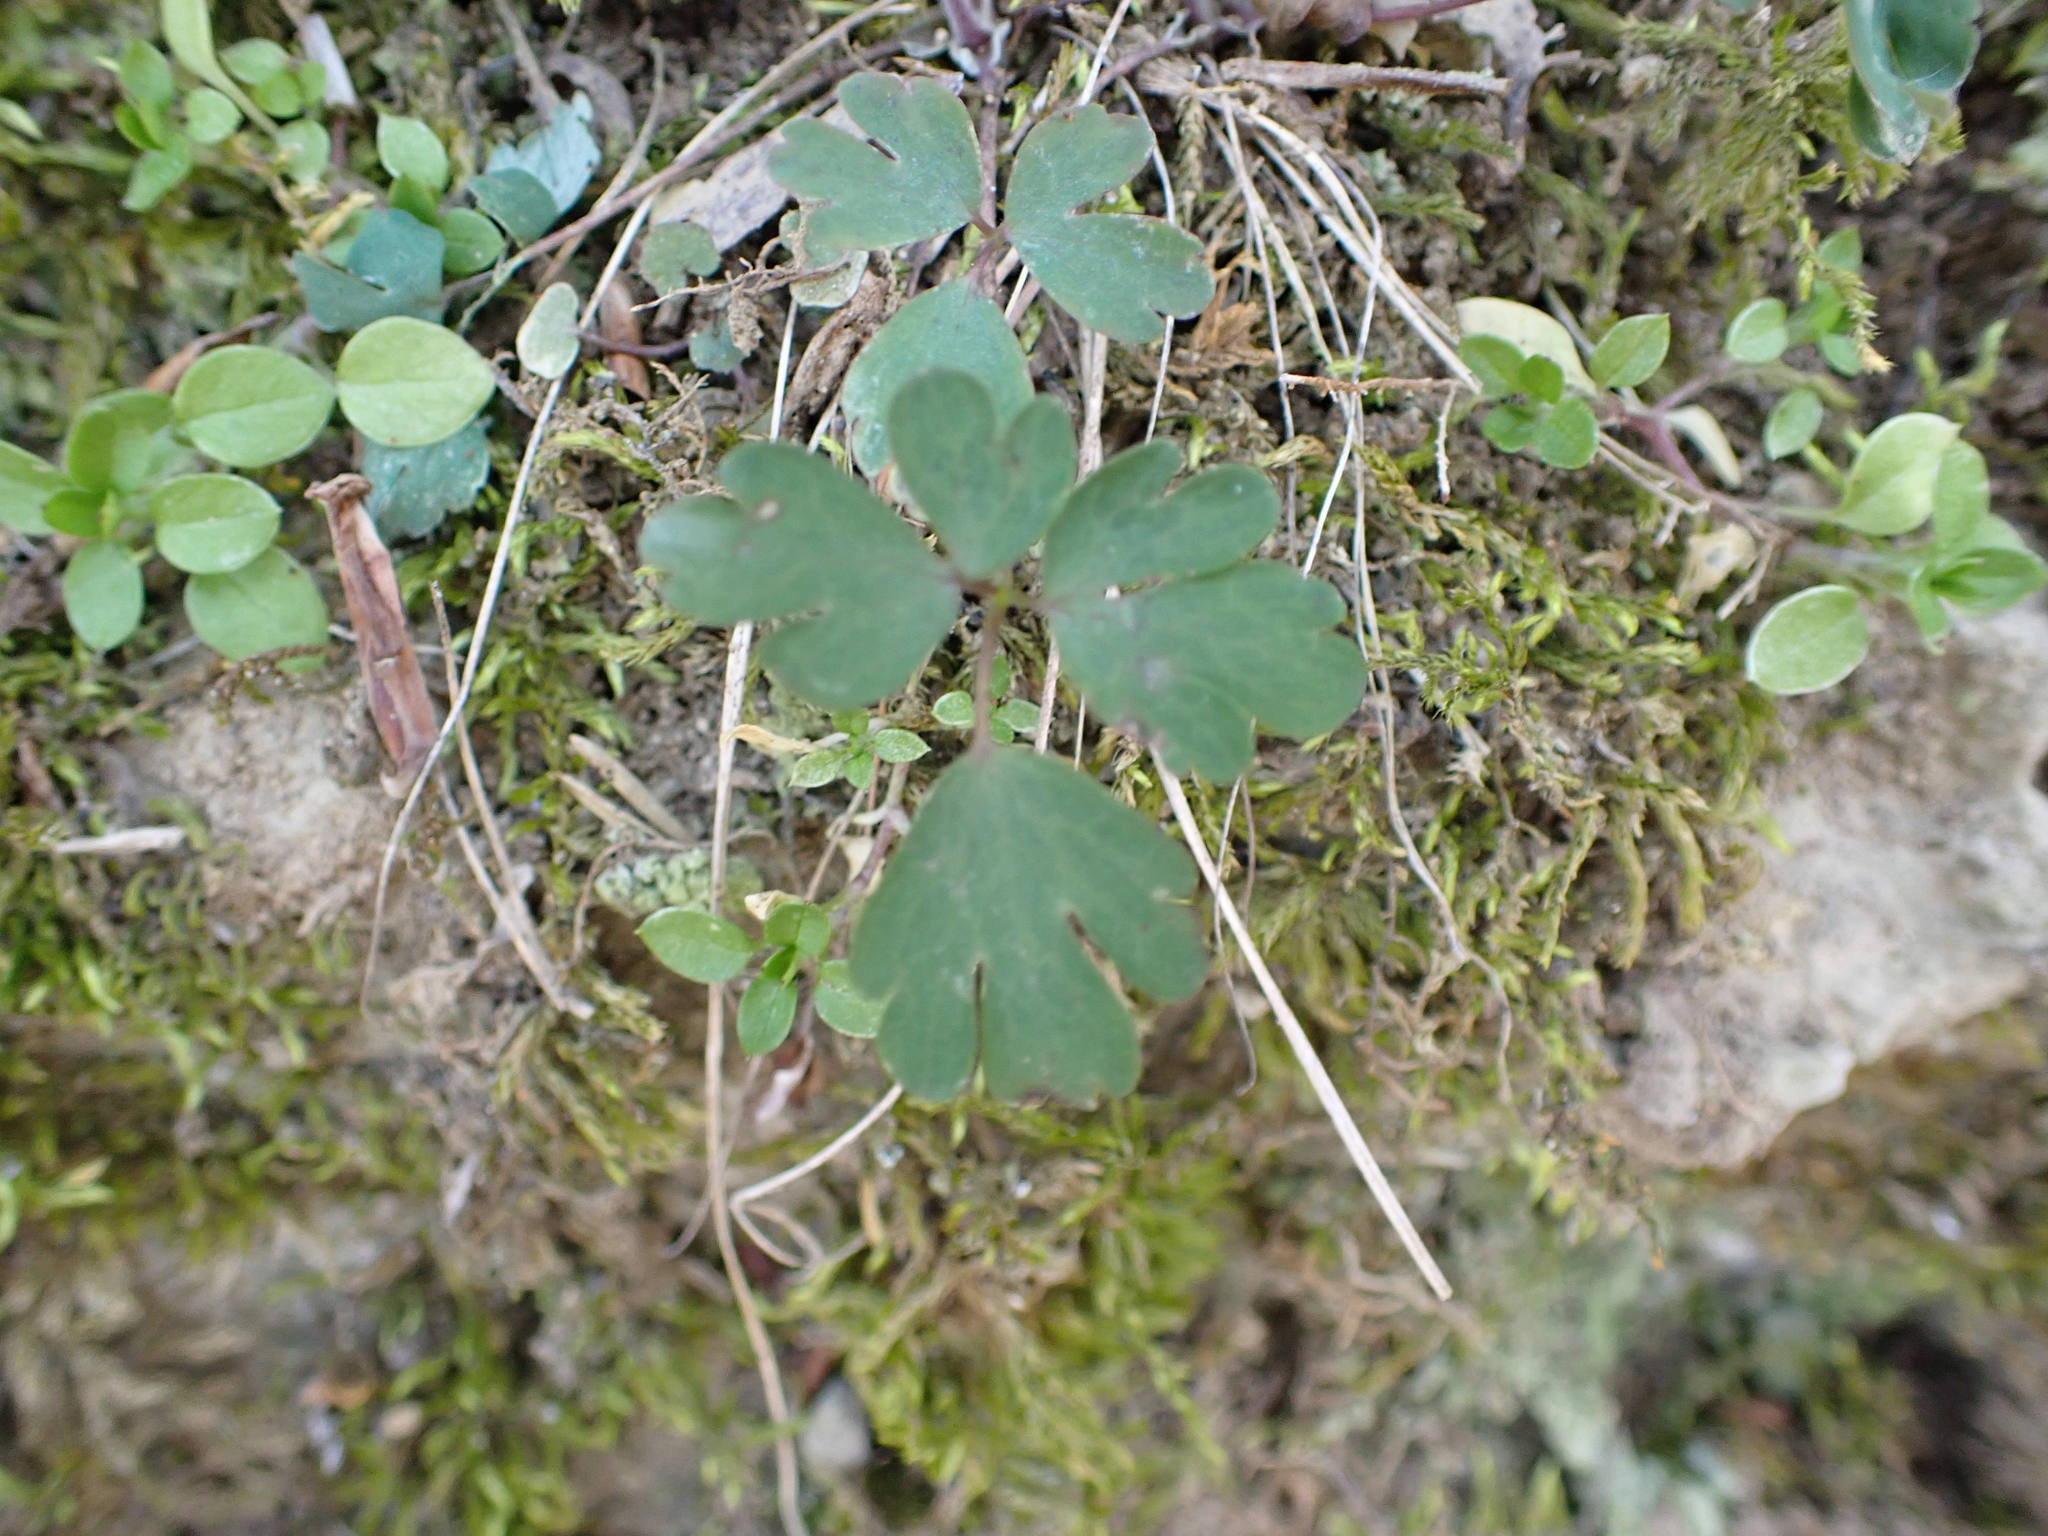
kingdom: Plantae
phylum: Tracheophyta
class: Magnoliopsida
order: Ranunculales
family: Ranunculaceae
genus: Aquilegia
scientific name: Aquilegia canadensis
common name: American columbine
